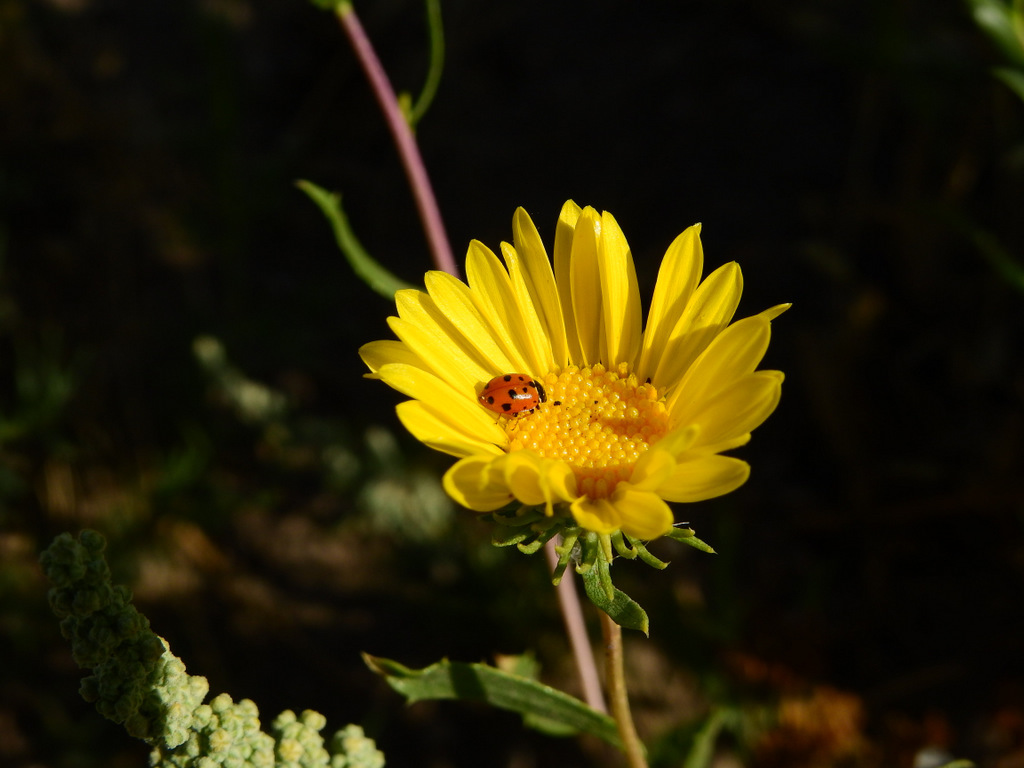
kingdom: Animalia
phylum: Arthropoda
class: Insecta
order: Coleoptera
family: Coccinellidae
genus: Hippodamia
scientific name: Hippodamia convergens
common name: Convergent lady beetle
